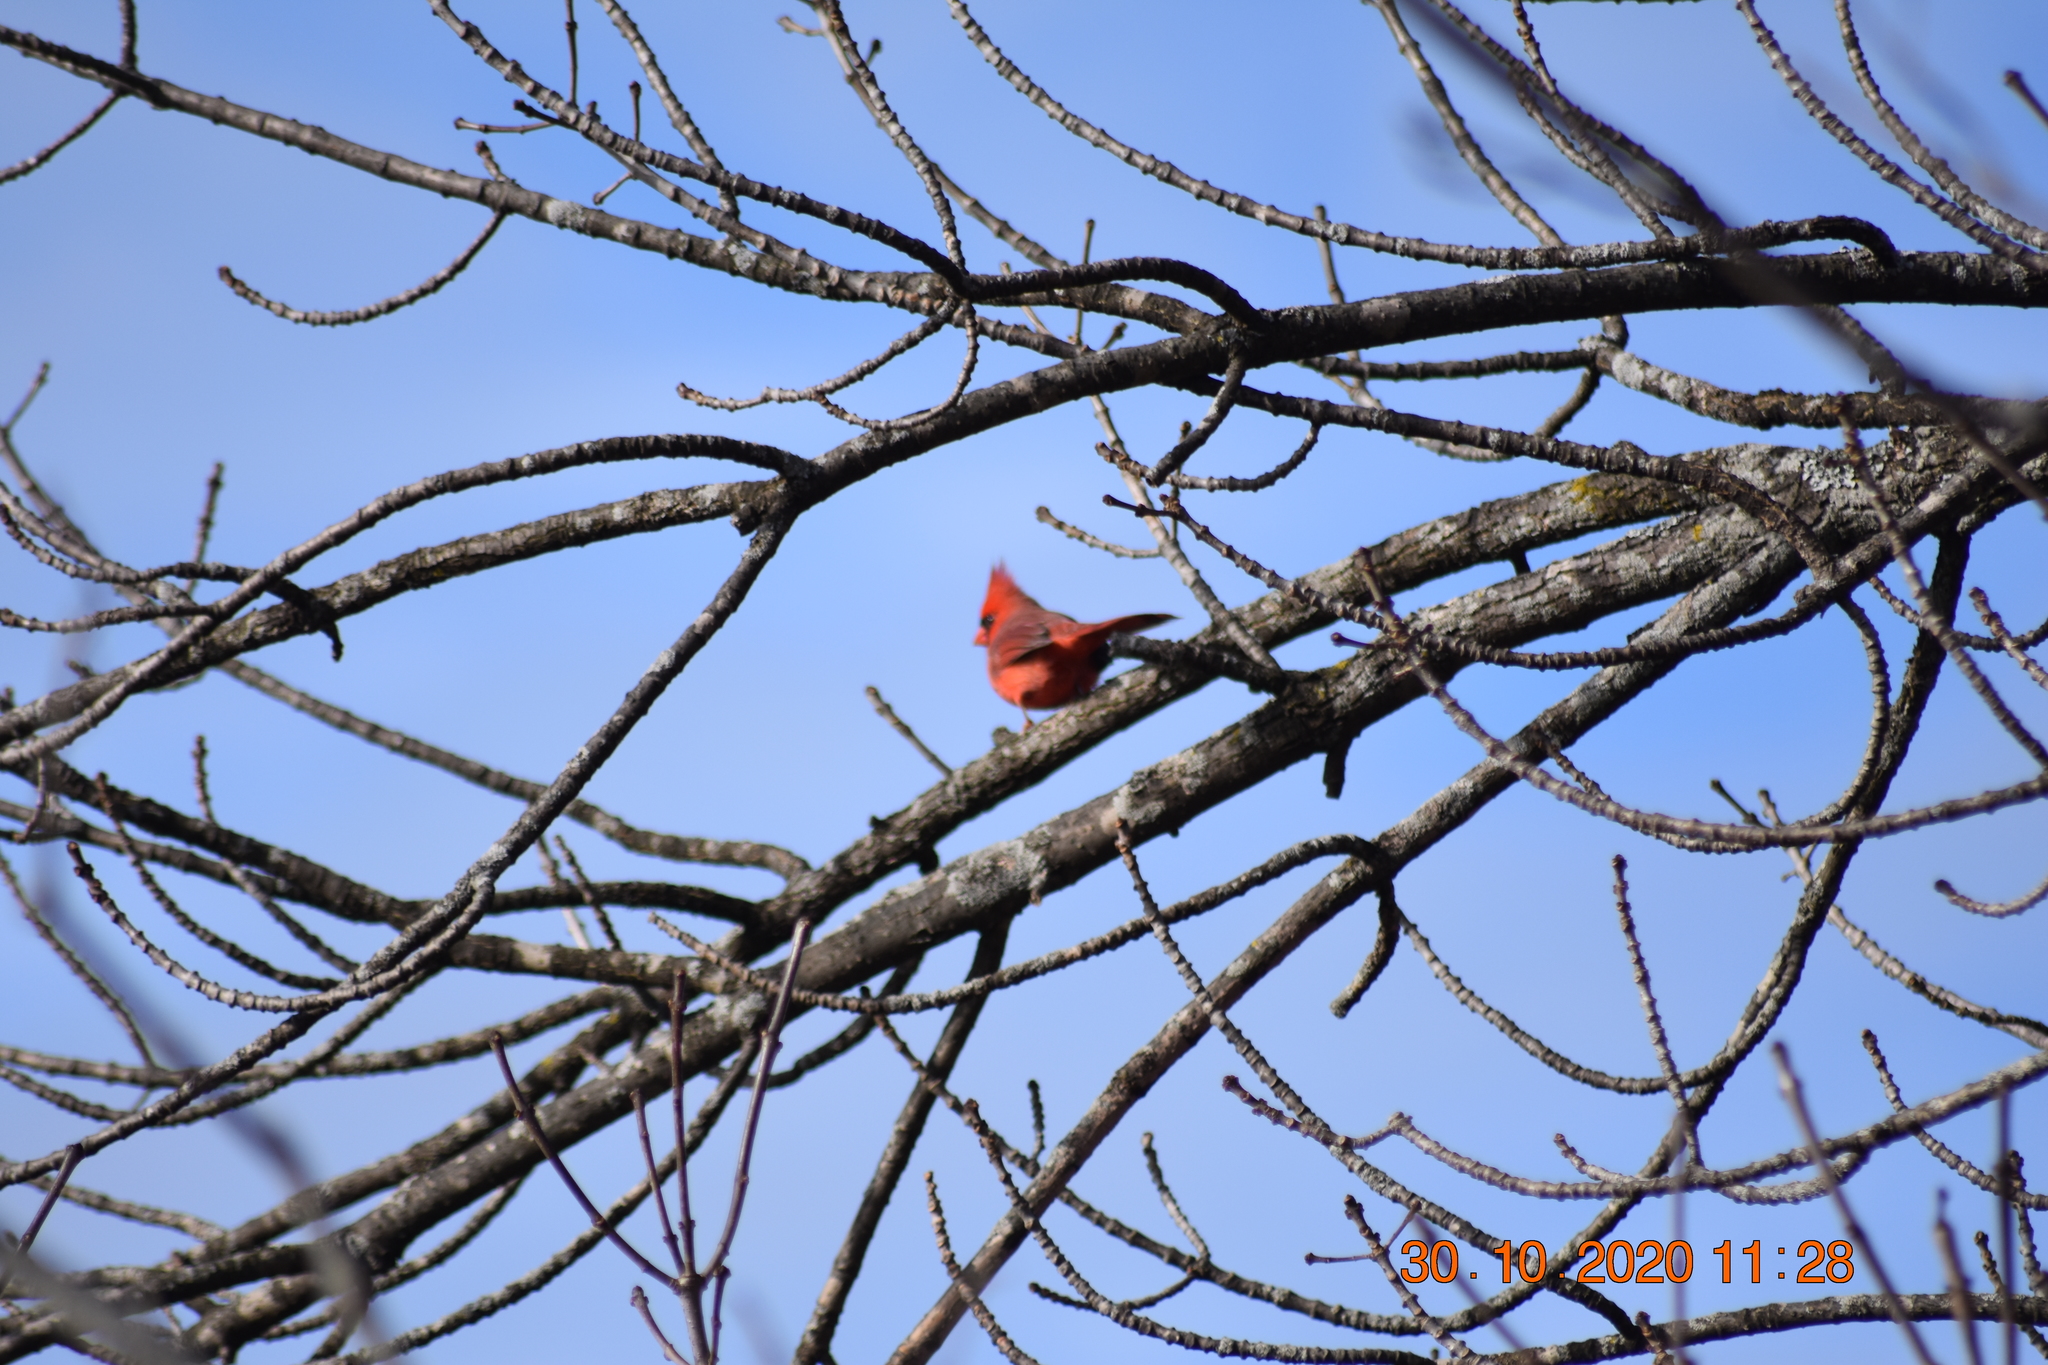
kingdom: Animalia
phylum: Chordata
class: Aves
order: Passeriformes
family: Cardinalidae
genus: Cardinalis
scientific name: Cardinalis cardinalis
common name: Northern cardinal
